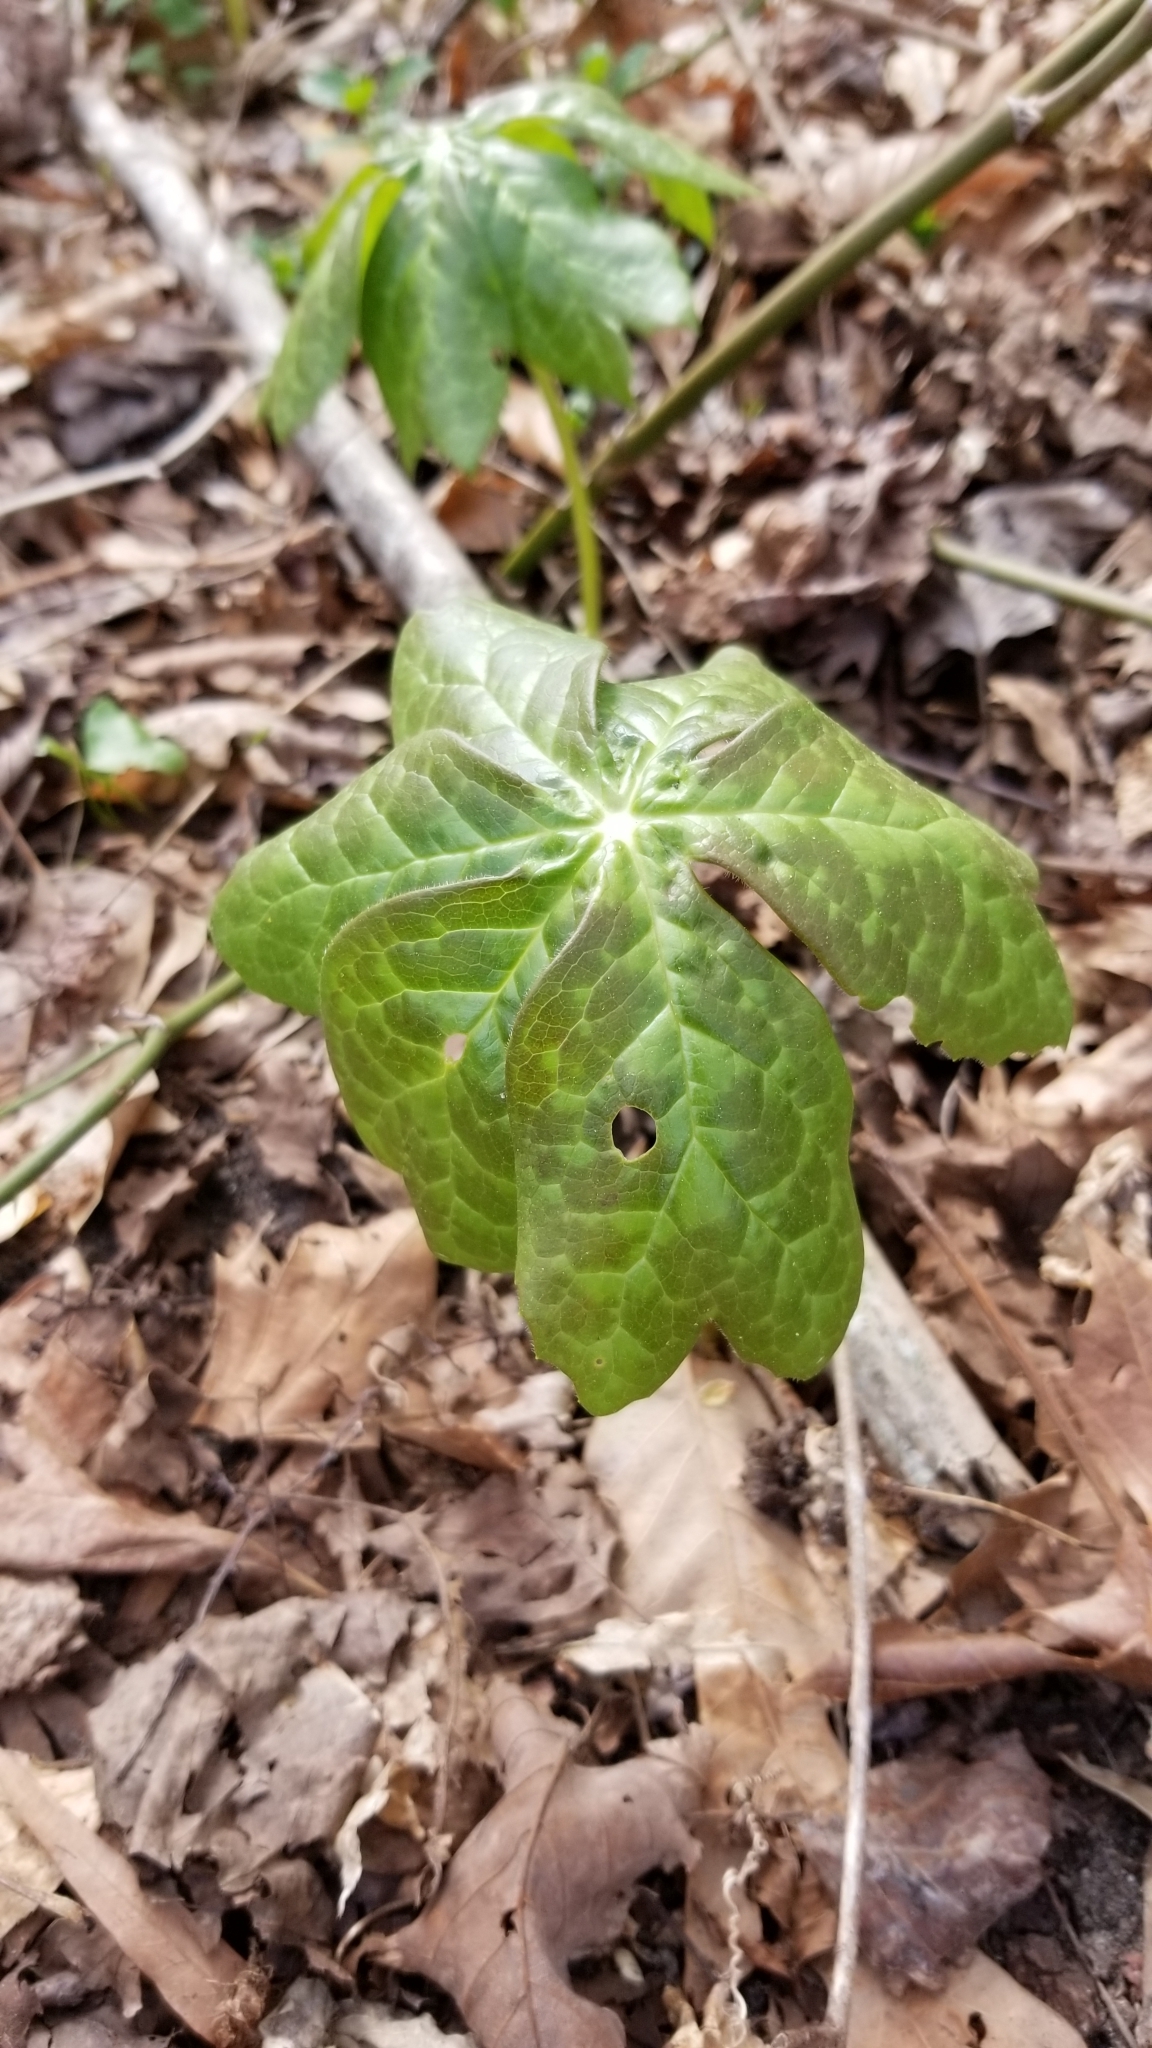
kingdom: Plantae
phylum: Tracheophyta
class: Magnoliopsida
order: Ranunculales
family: Berberidaceae
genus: Podophyllum
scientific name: Podophyllum peltatum
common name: Wild mandrake
